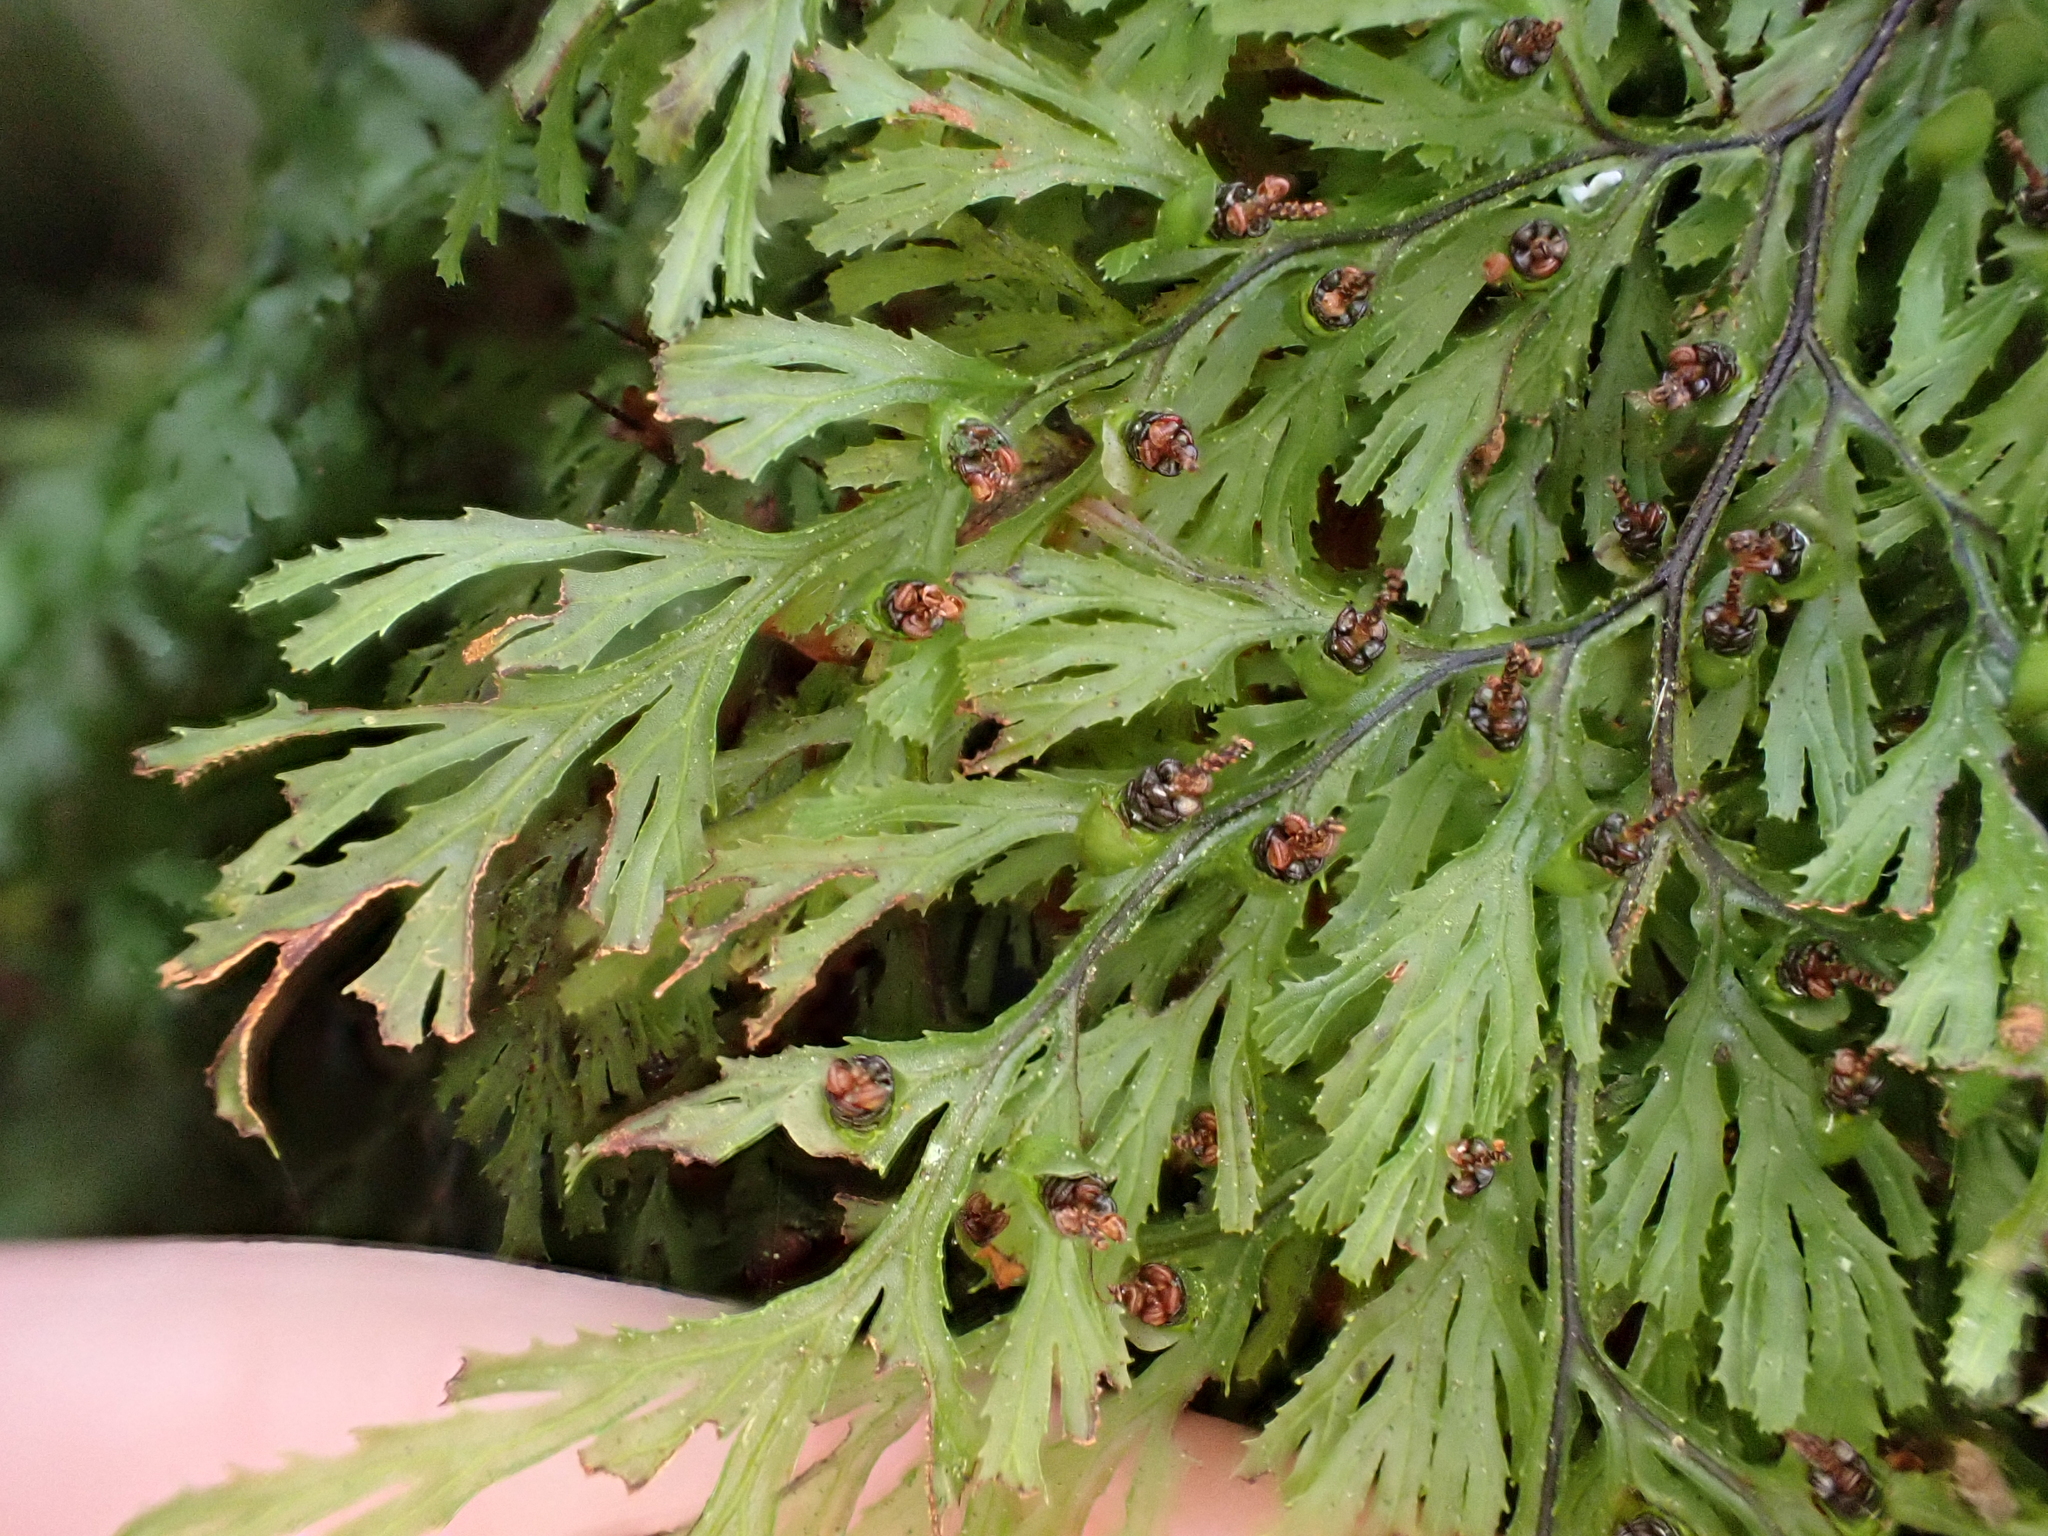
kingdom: Plantae
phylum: Tracheophyta
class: Polypodiopsida
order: Hymenophyllales
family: Hymenophyllaceae
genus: Hymenophyllum
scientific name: Hymenophyllum multifidum
